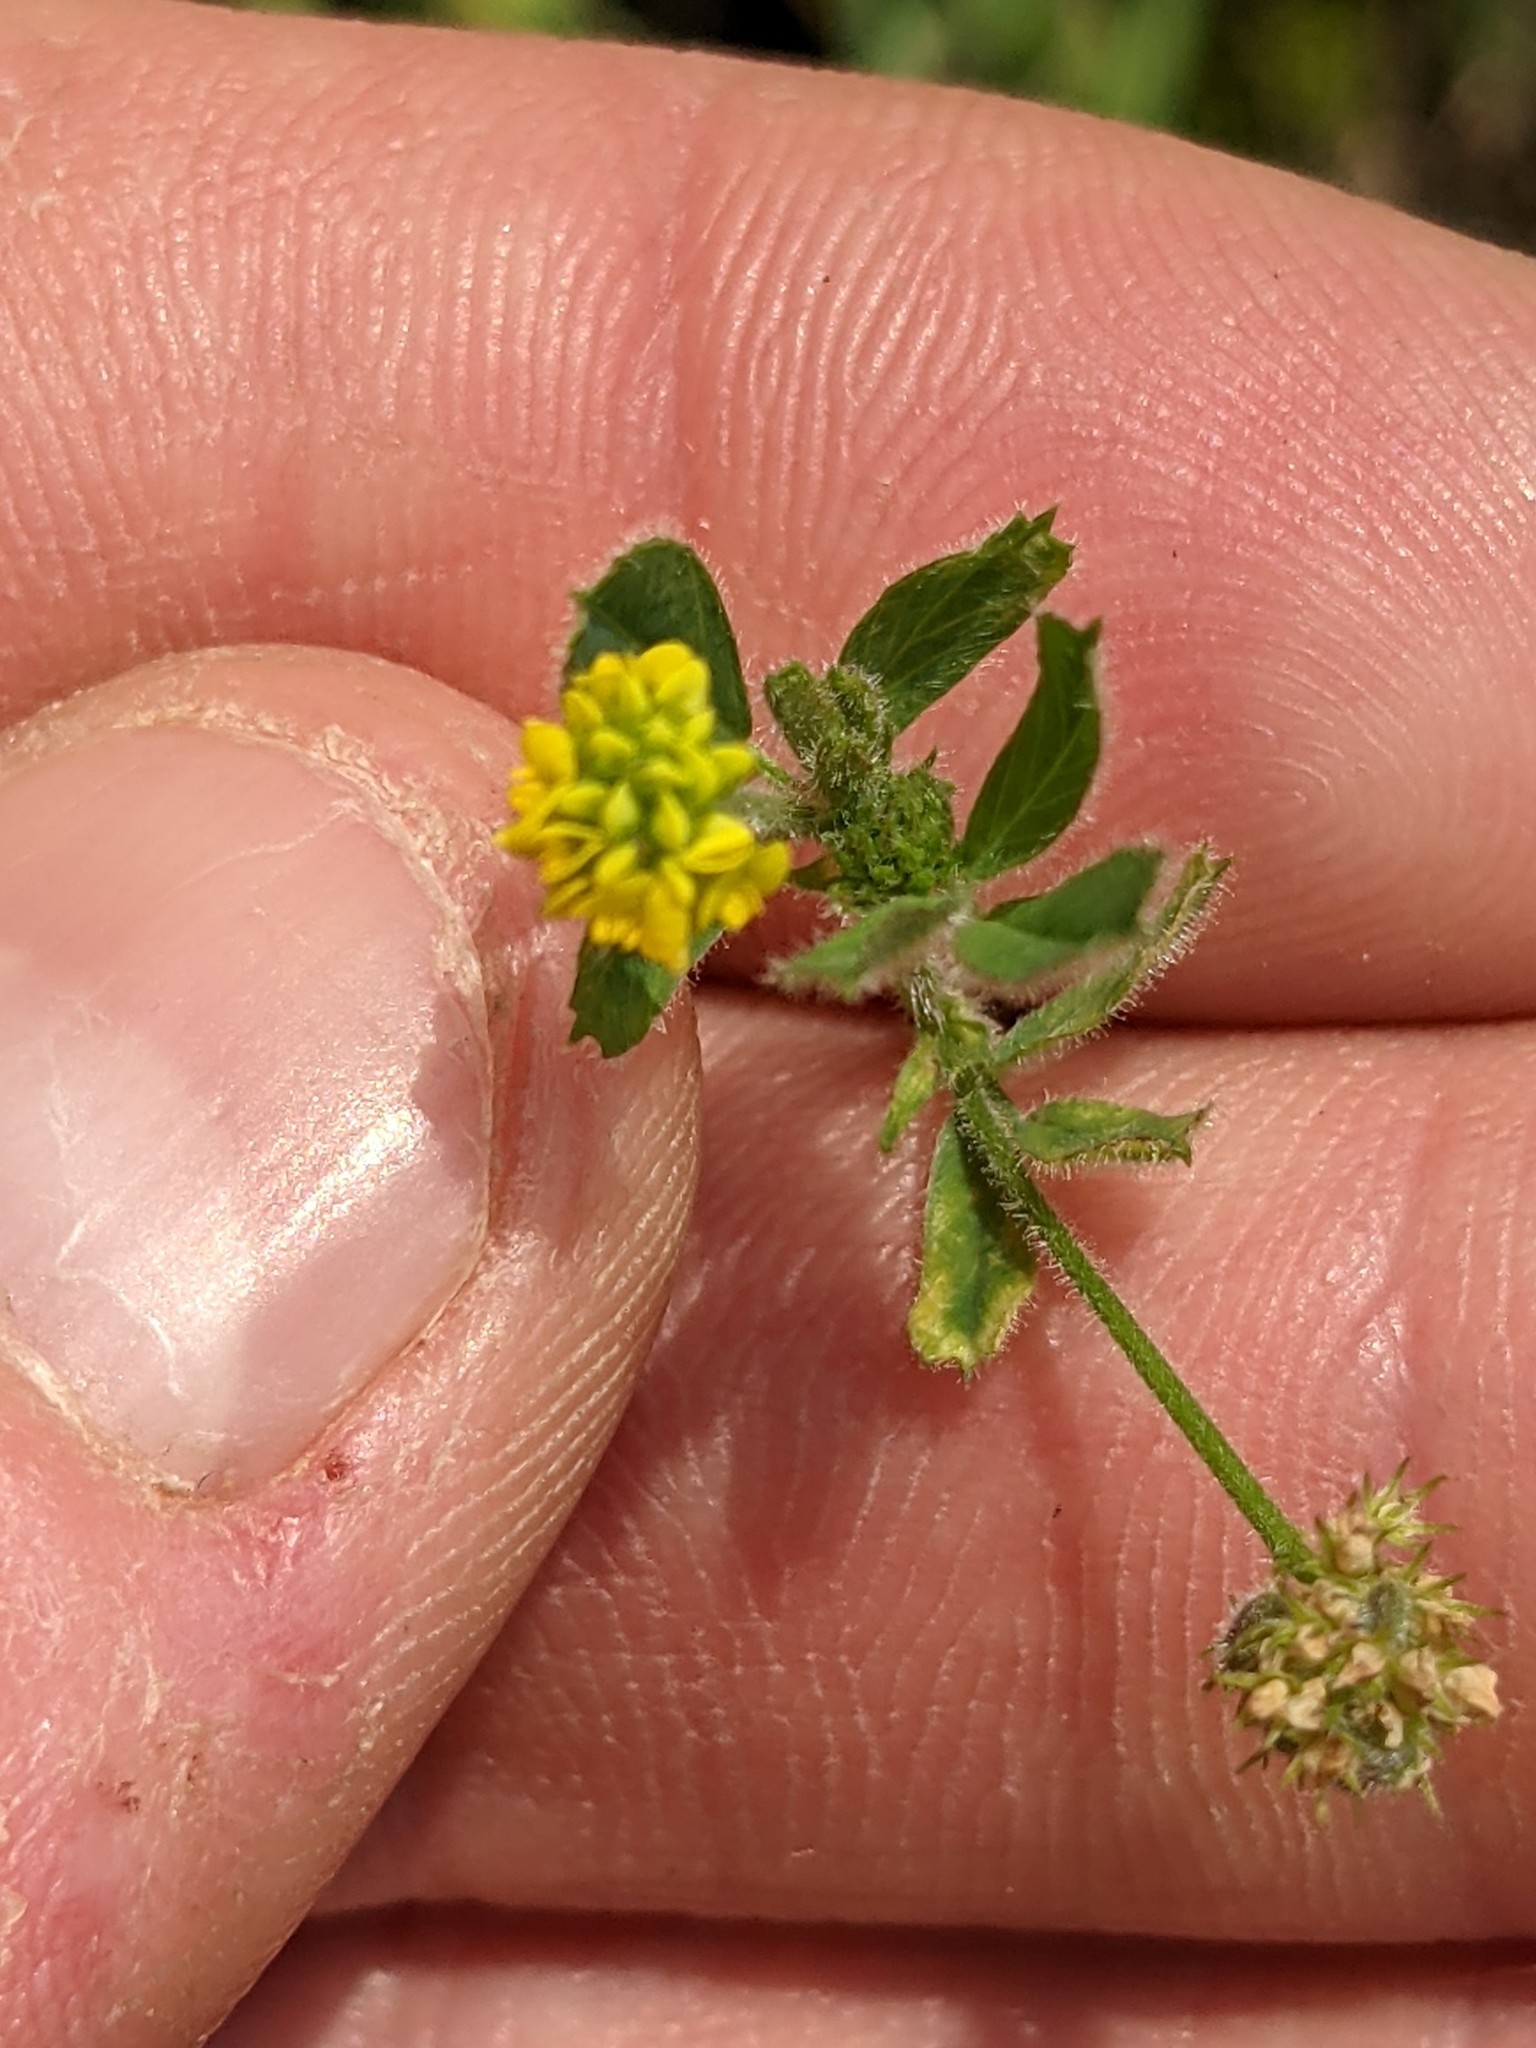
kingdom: Plantae
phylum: Tracheophyta
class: Magnoliopsida
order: Fabales
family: Fabaceae
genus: Medicago
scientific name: Medicago lupulina
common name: Black medick
